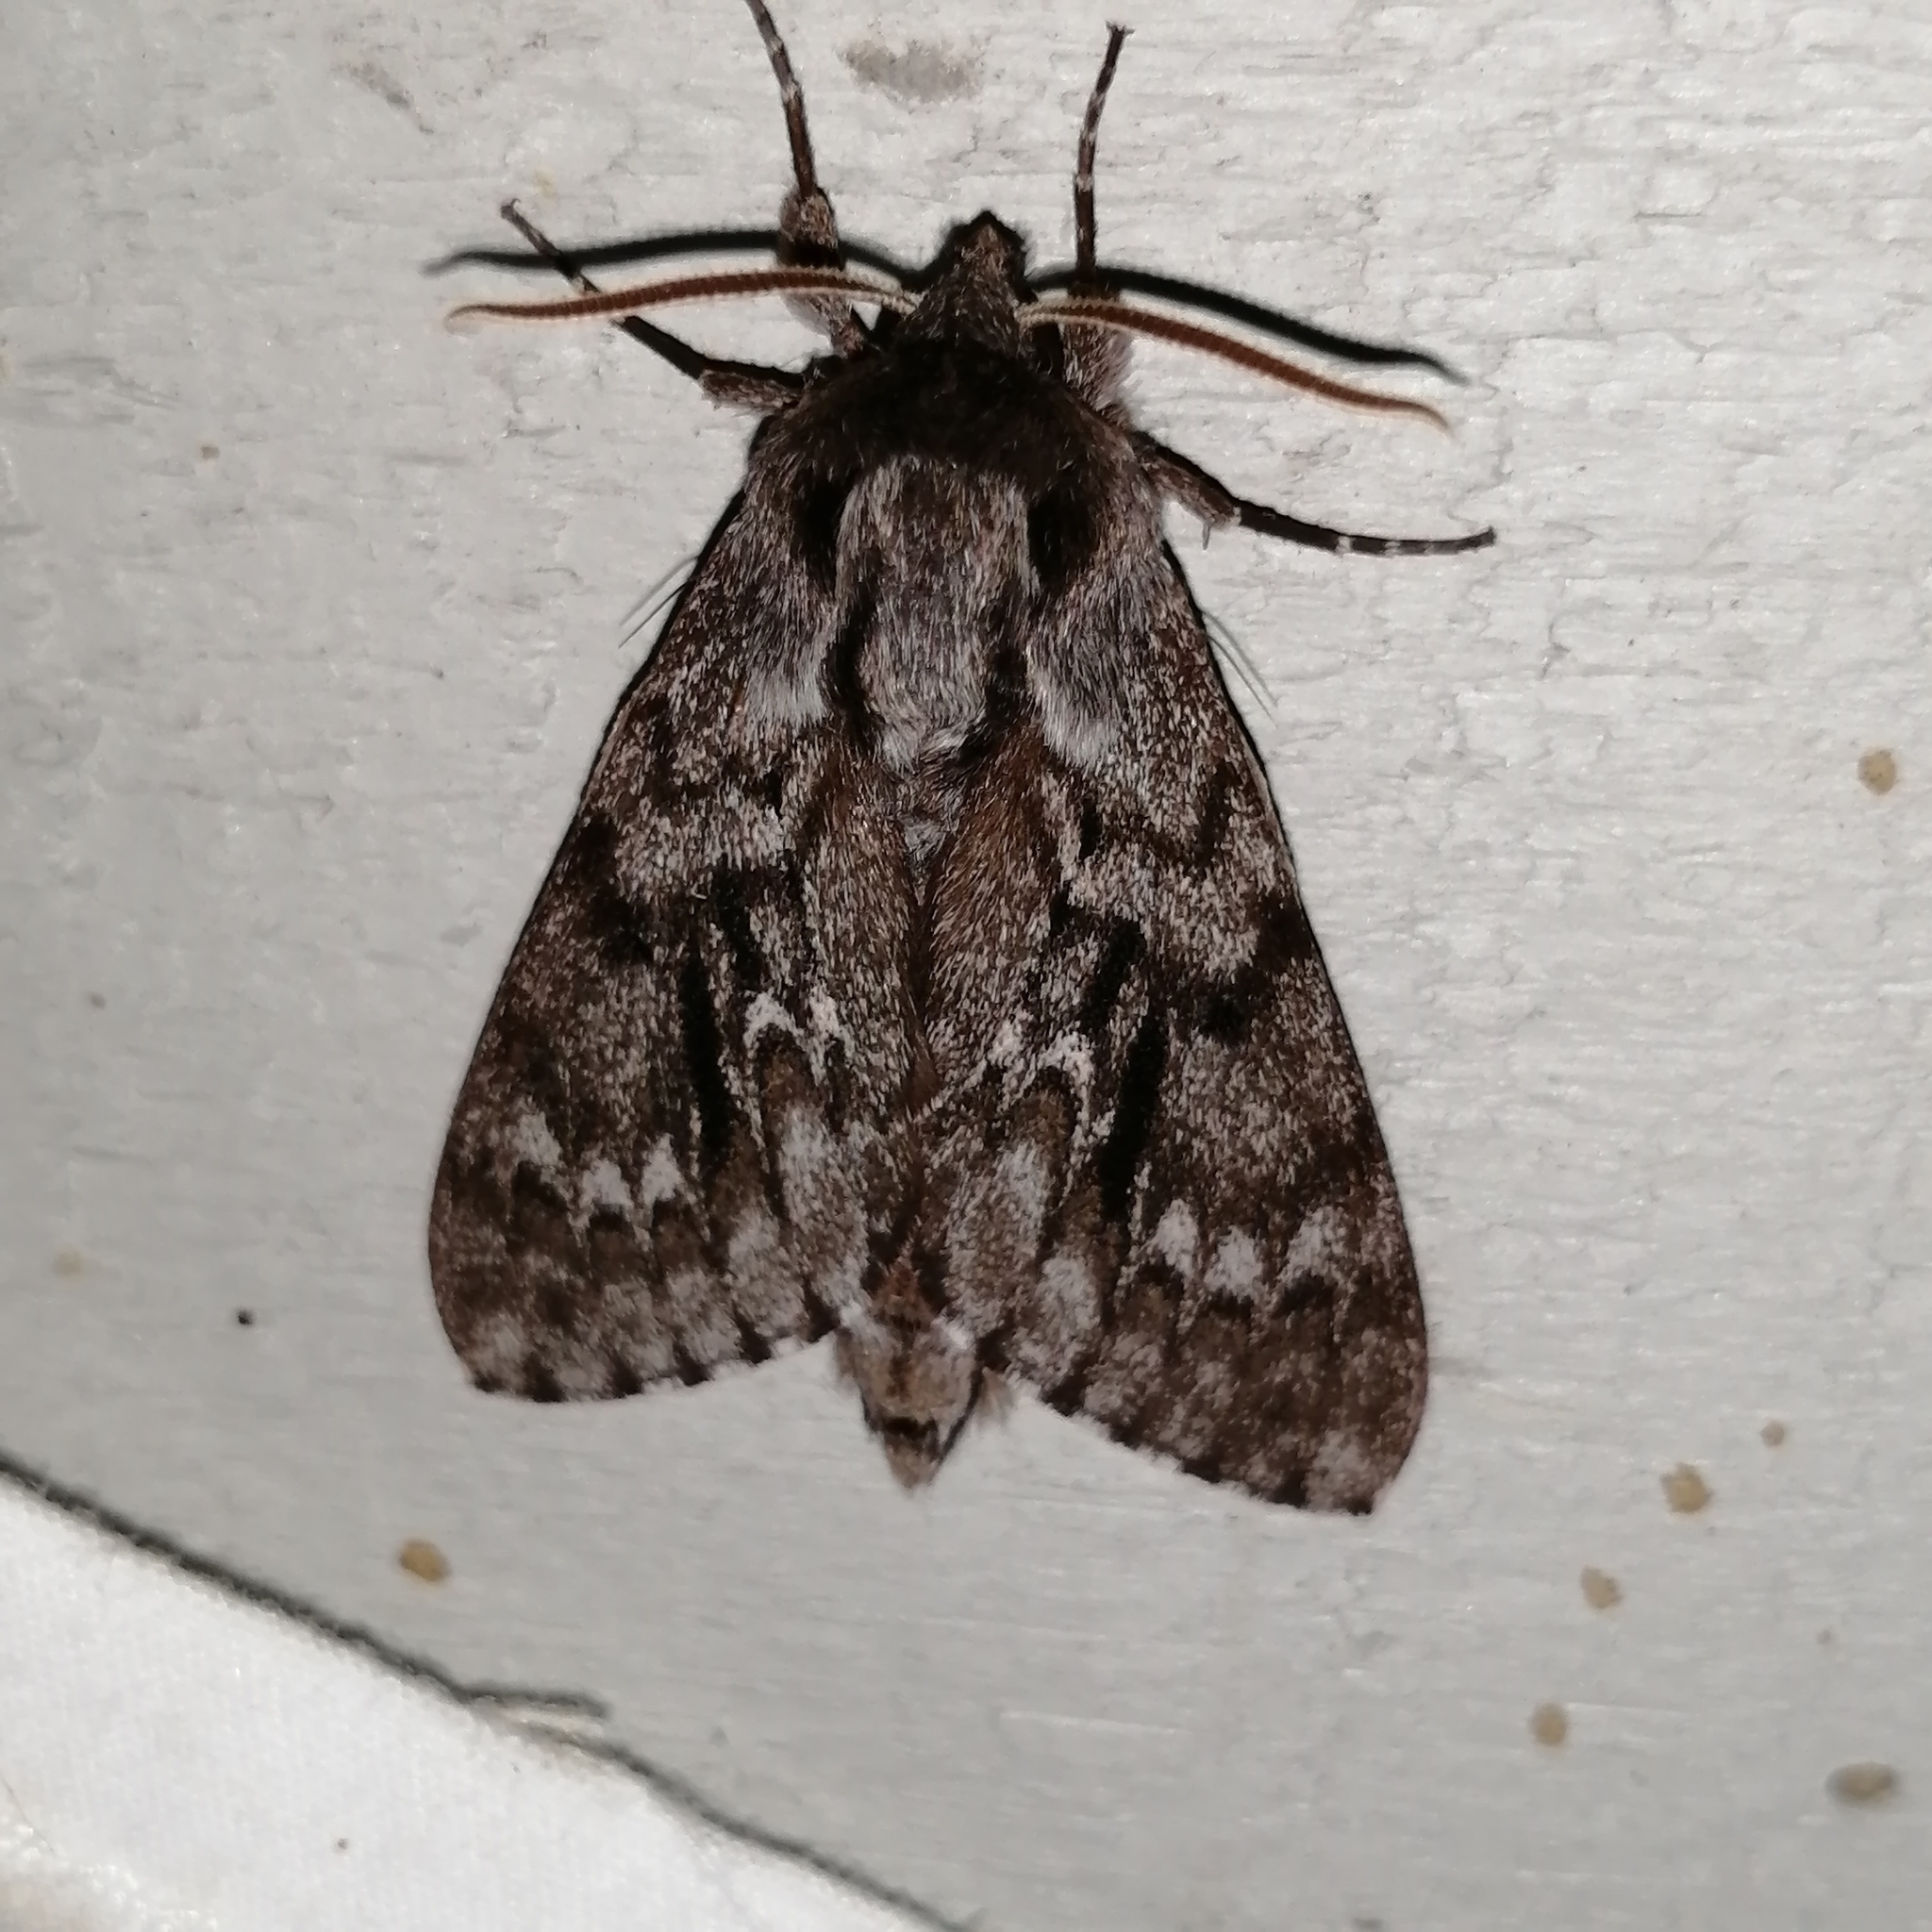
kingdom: Animalia
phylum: Arthropoda
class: Insecta
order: Lepidoptera
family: Sphingidae
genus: Lapara
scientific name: Lapara bombycoides
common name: Northern pine sphinx
